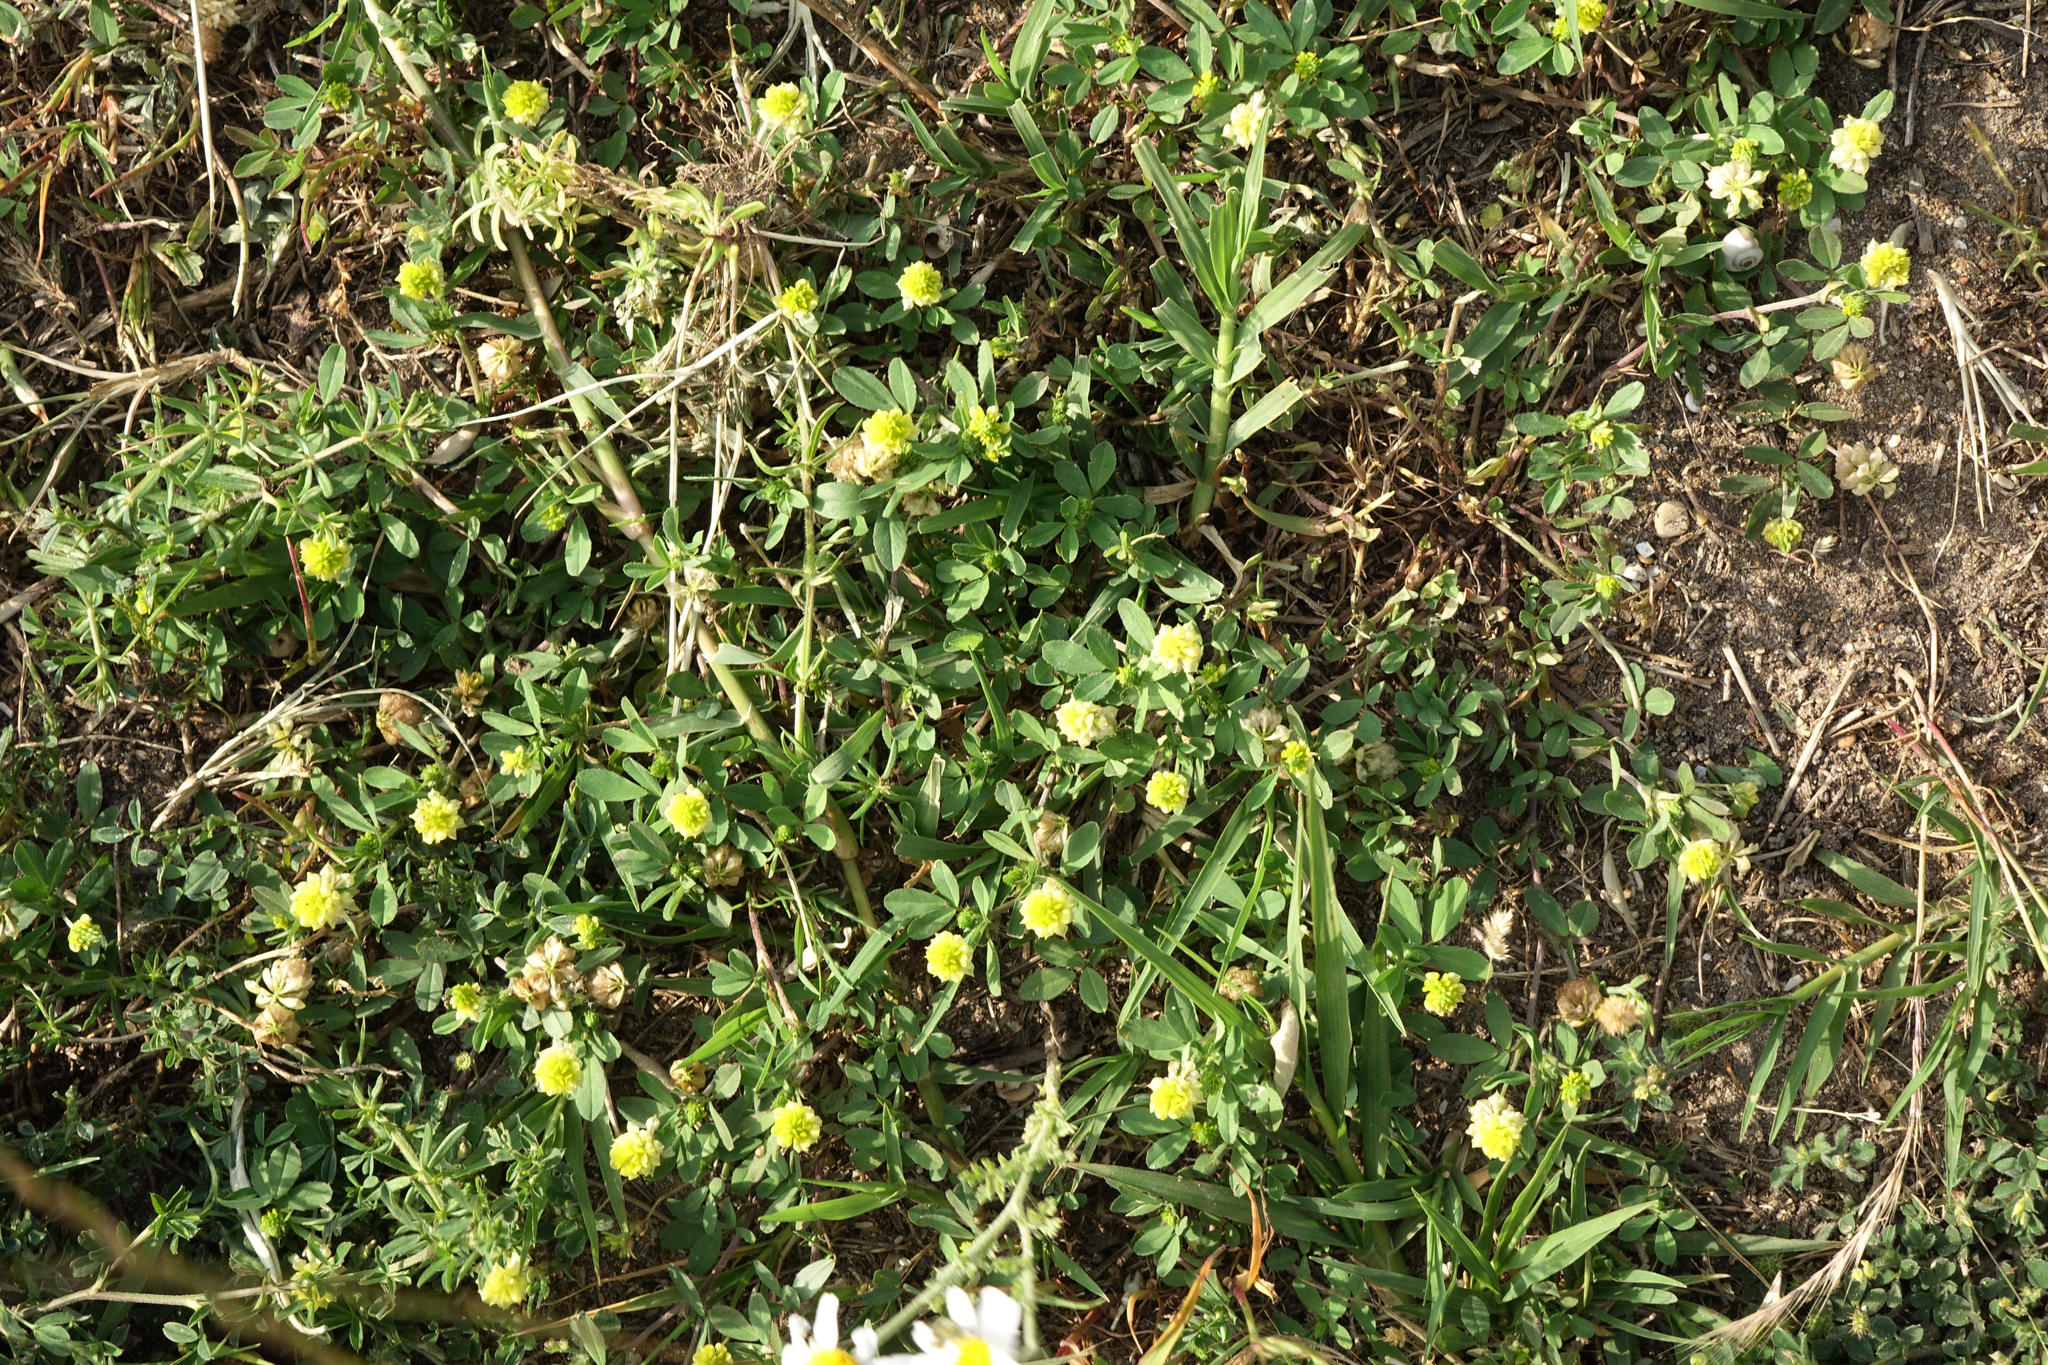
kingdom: Plantae
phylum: Tracheophyta
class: Magnoliopsida
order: Fabales
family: Fabaceae
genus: Medicago
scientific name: Medicago lupulina
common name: Black medick
